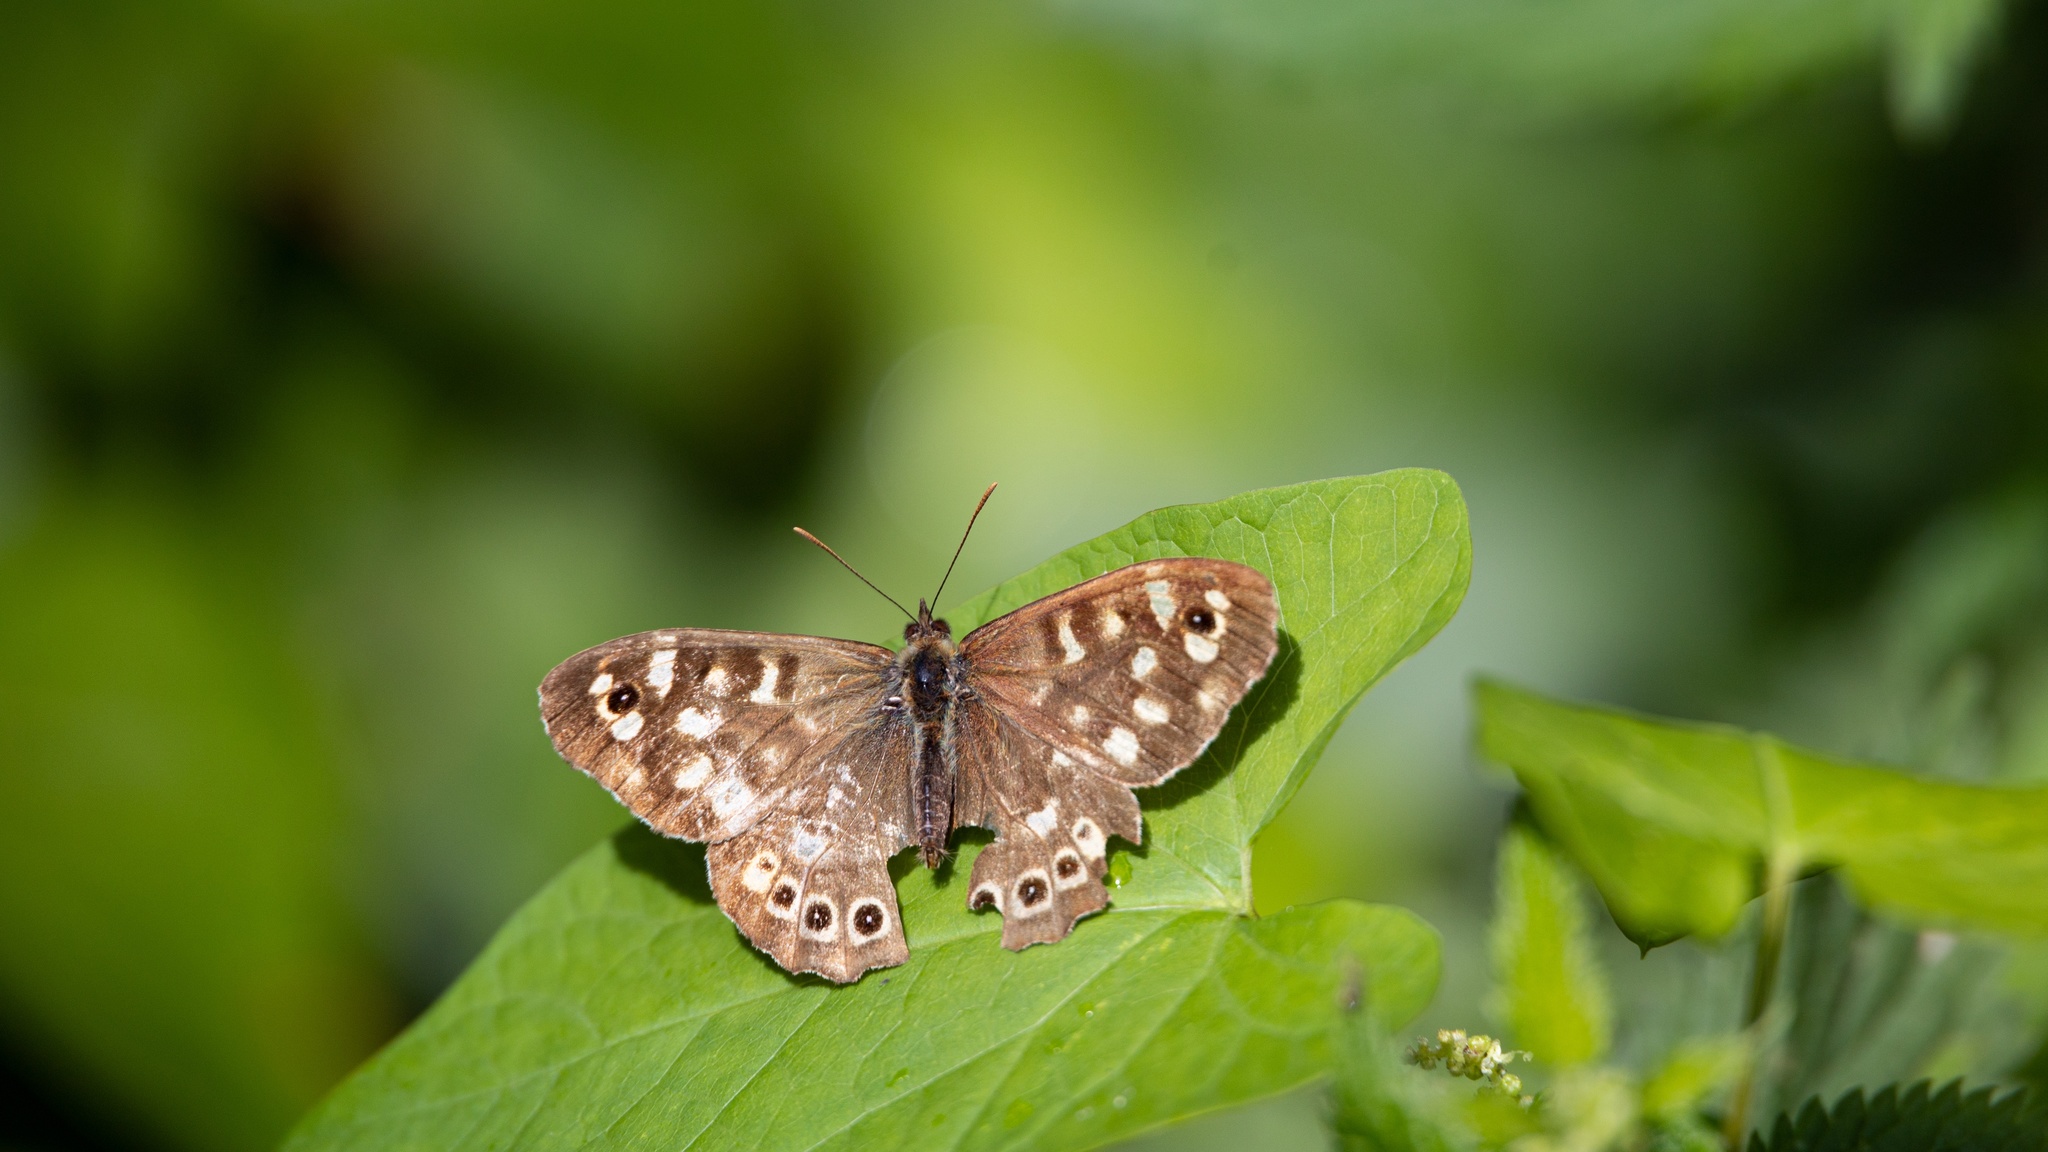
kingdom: Animalia
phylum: Arthropoda
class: Insecta
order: Lepidoptera
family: Nymphalidae
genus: Pararge
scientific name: Pararge aegeria
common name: Speckled wood
